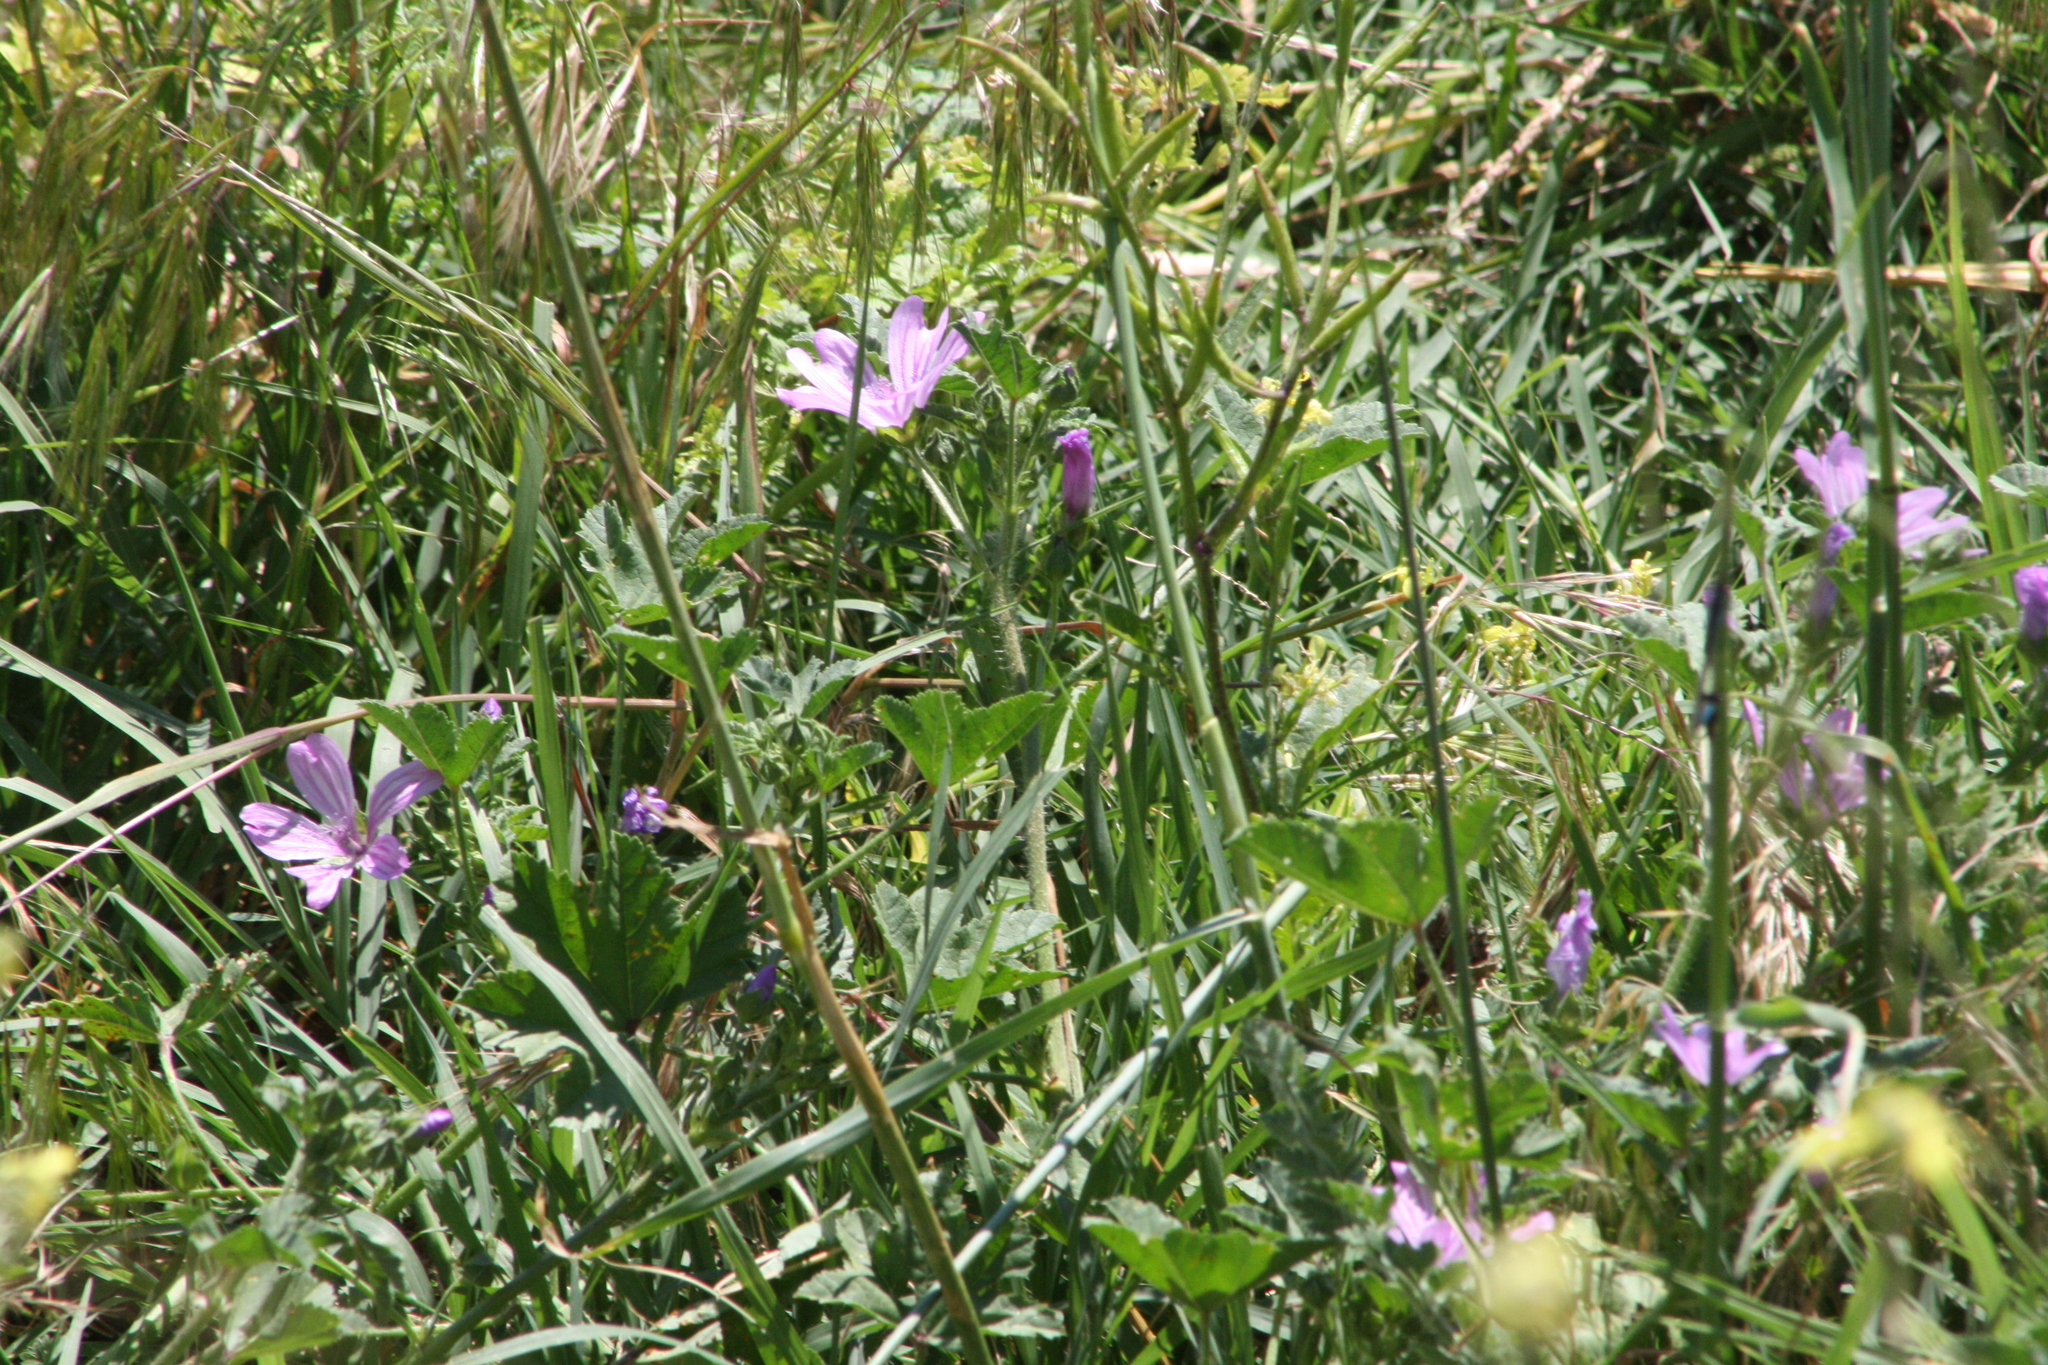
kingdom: Plantae
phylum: Tracheophyta
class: Magnoliopsida
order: Malvales
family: Malvaceae
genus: Malva
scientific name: Malva sylvestris
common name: Common mallow
